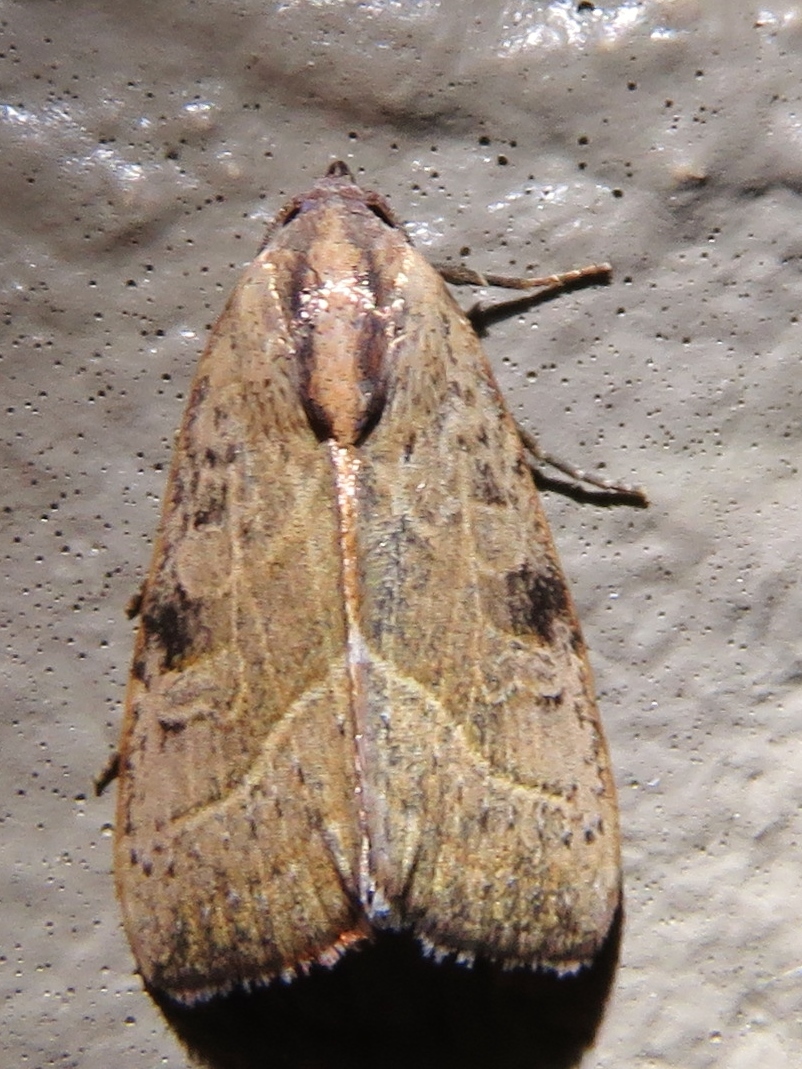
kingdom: Animalia
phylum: Arthropoda
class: Insecta
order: Lepidoptera
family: Noctuidae
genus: Galgula
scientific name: Galgula partita
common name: Wedgeling
